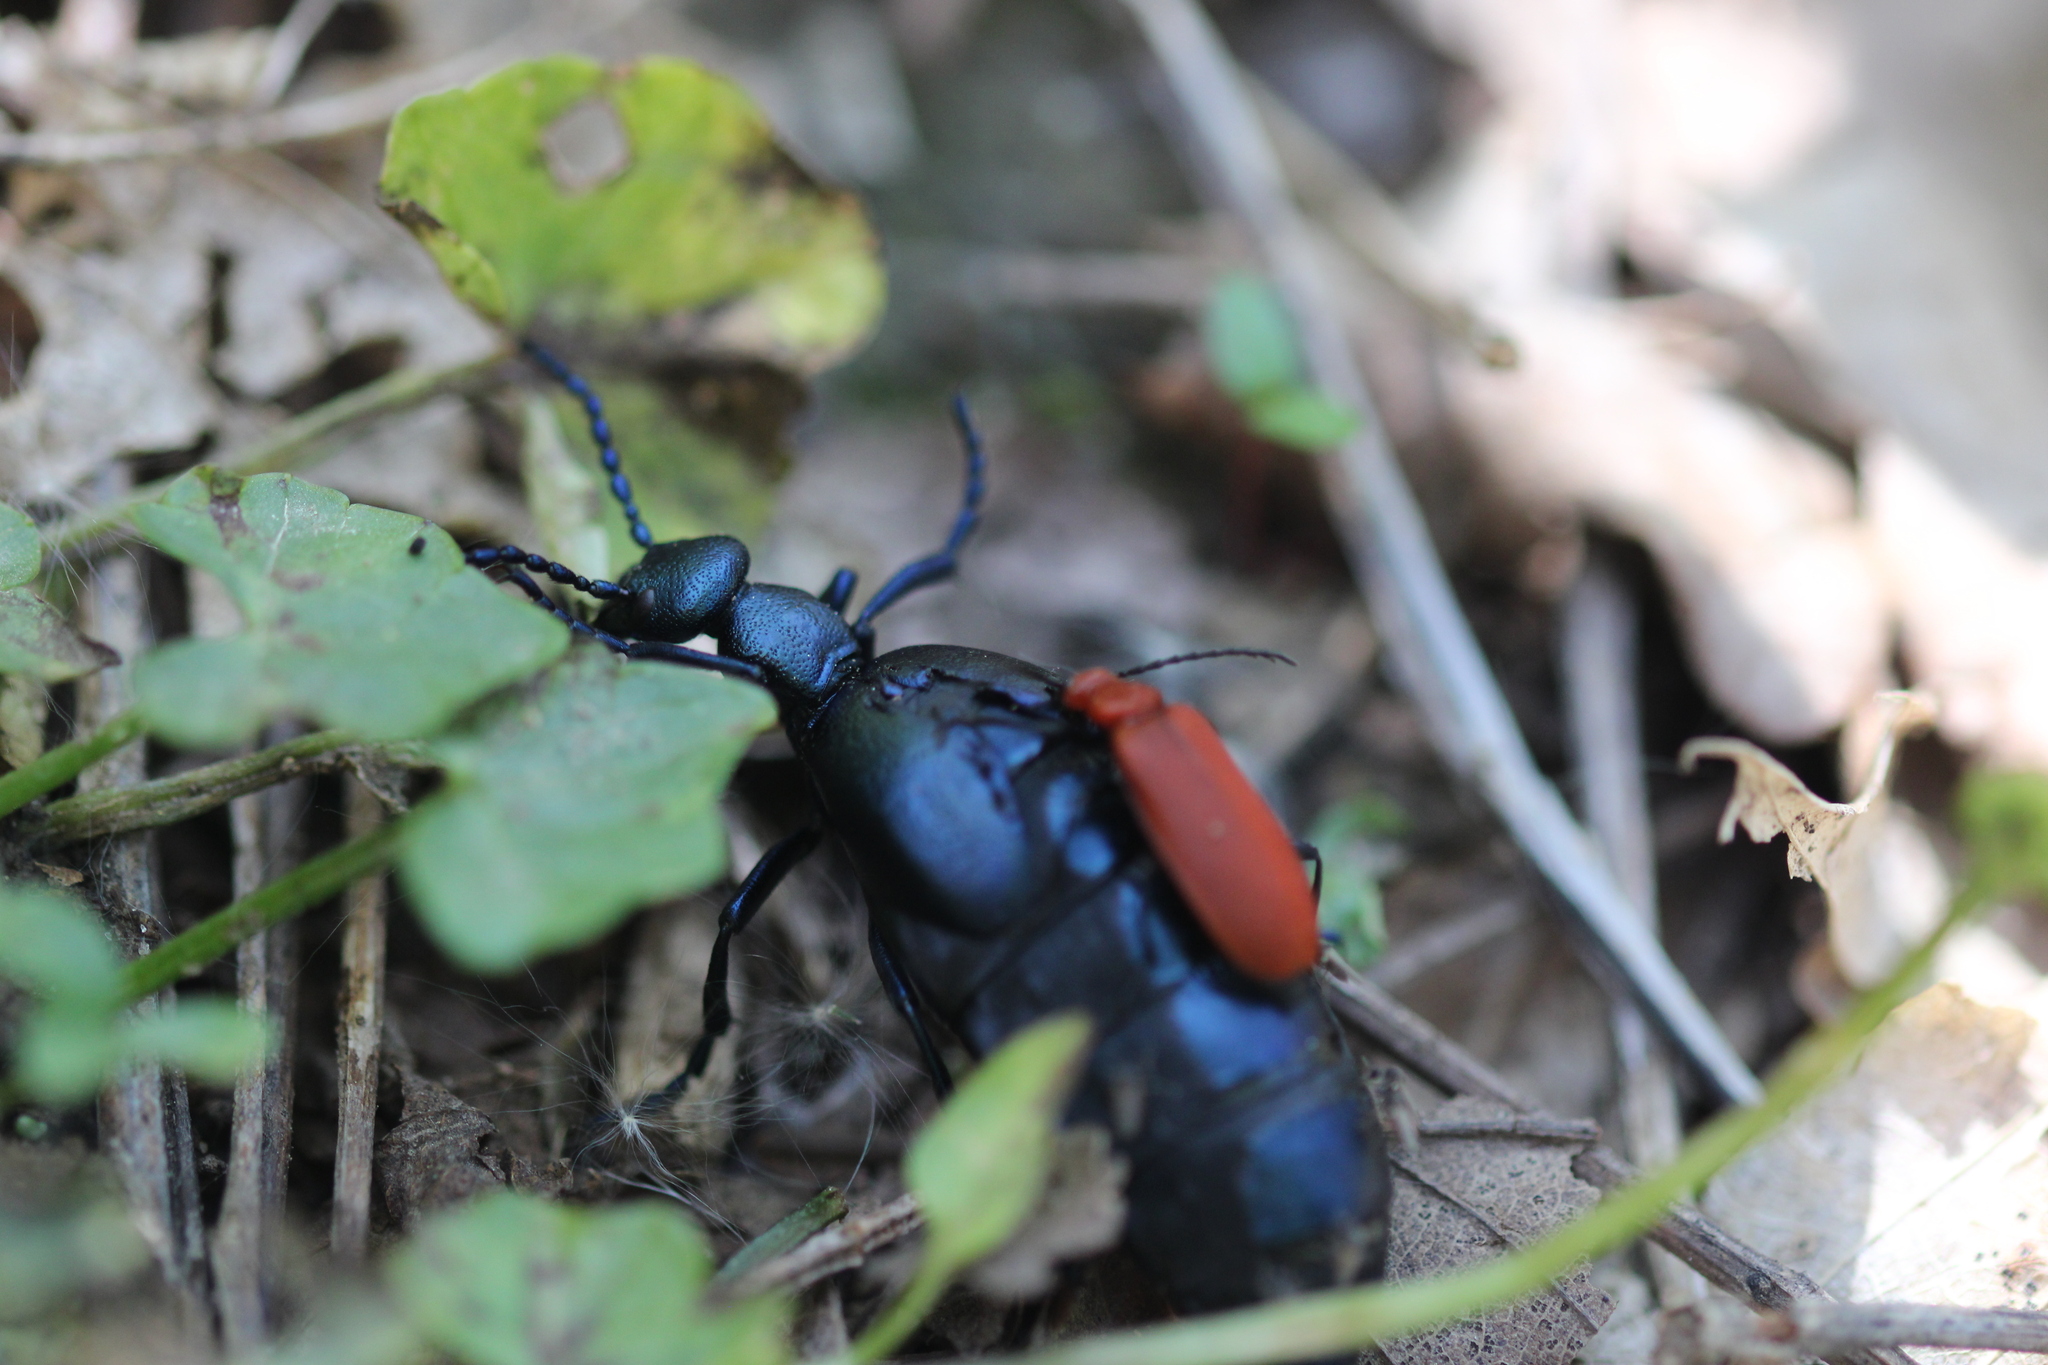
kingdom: Animalia
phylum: Arthropoda
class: Insecta
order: Coleoptera
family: Meloidae
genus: Meloe
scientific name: Meloe violaceus
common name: Violet oil-beetle
